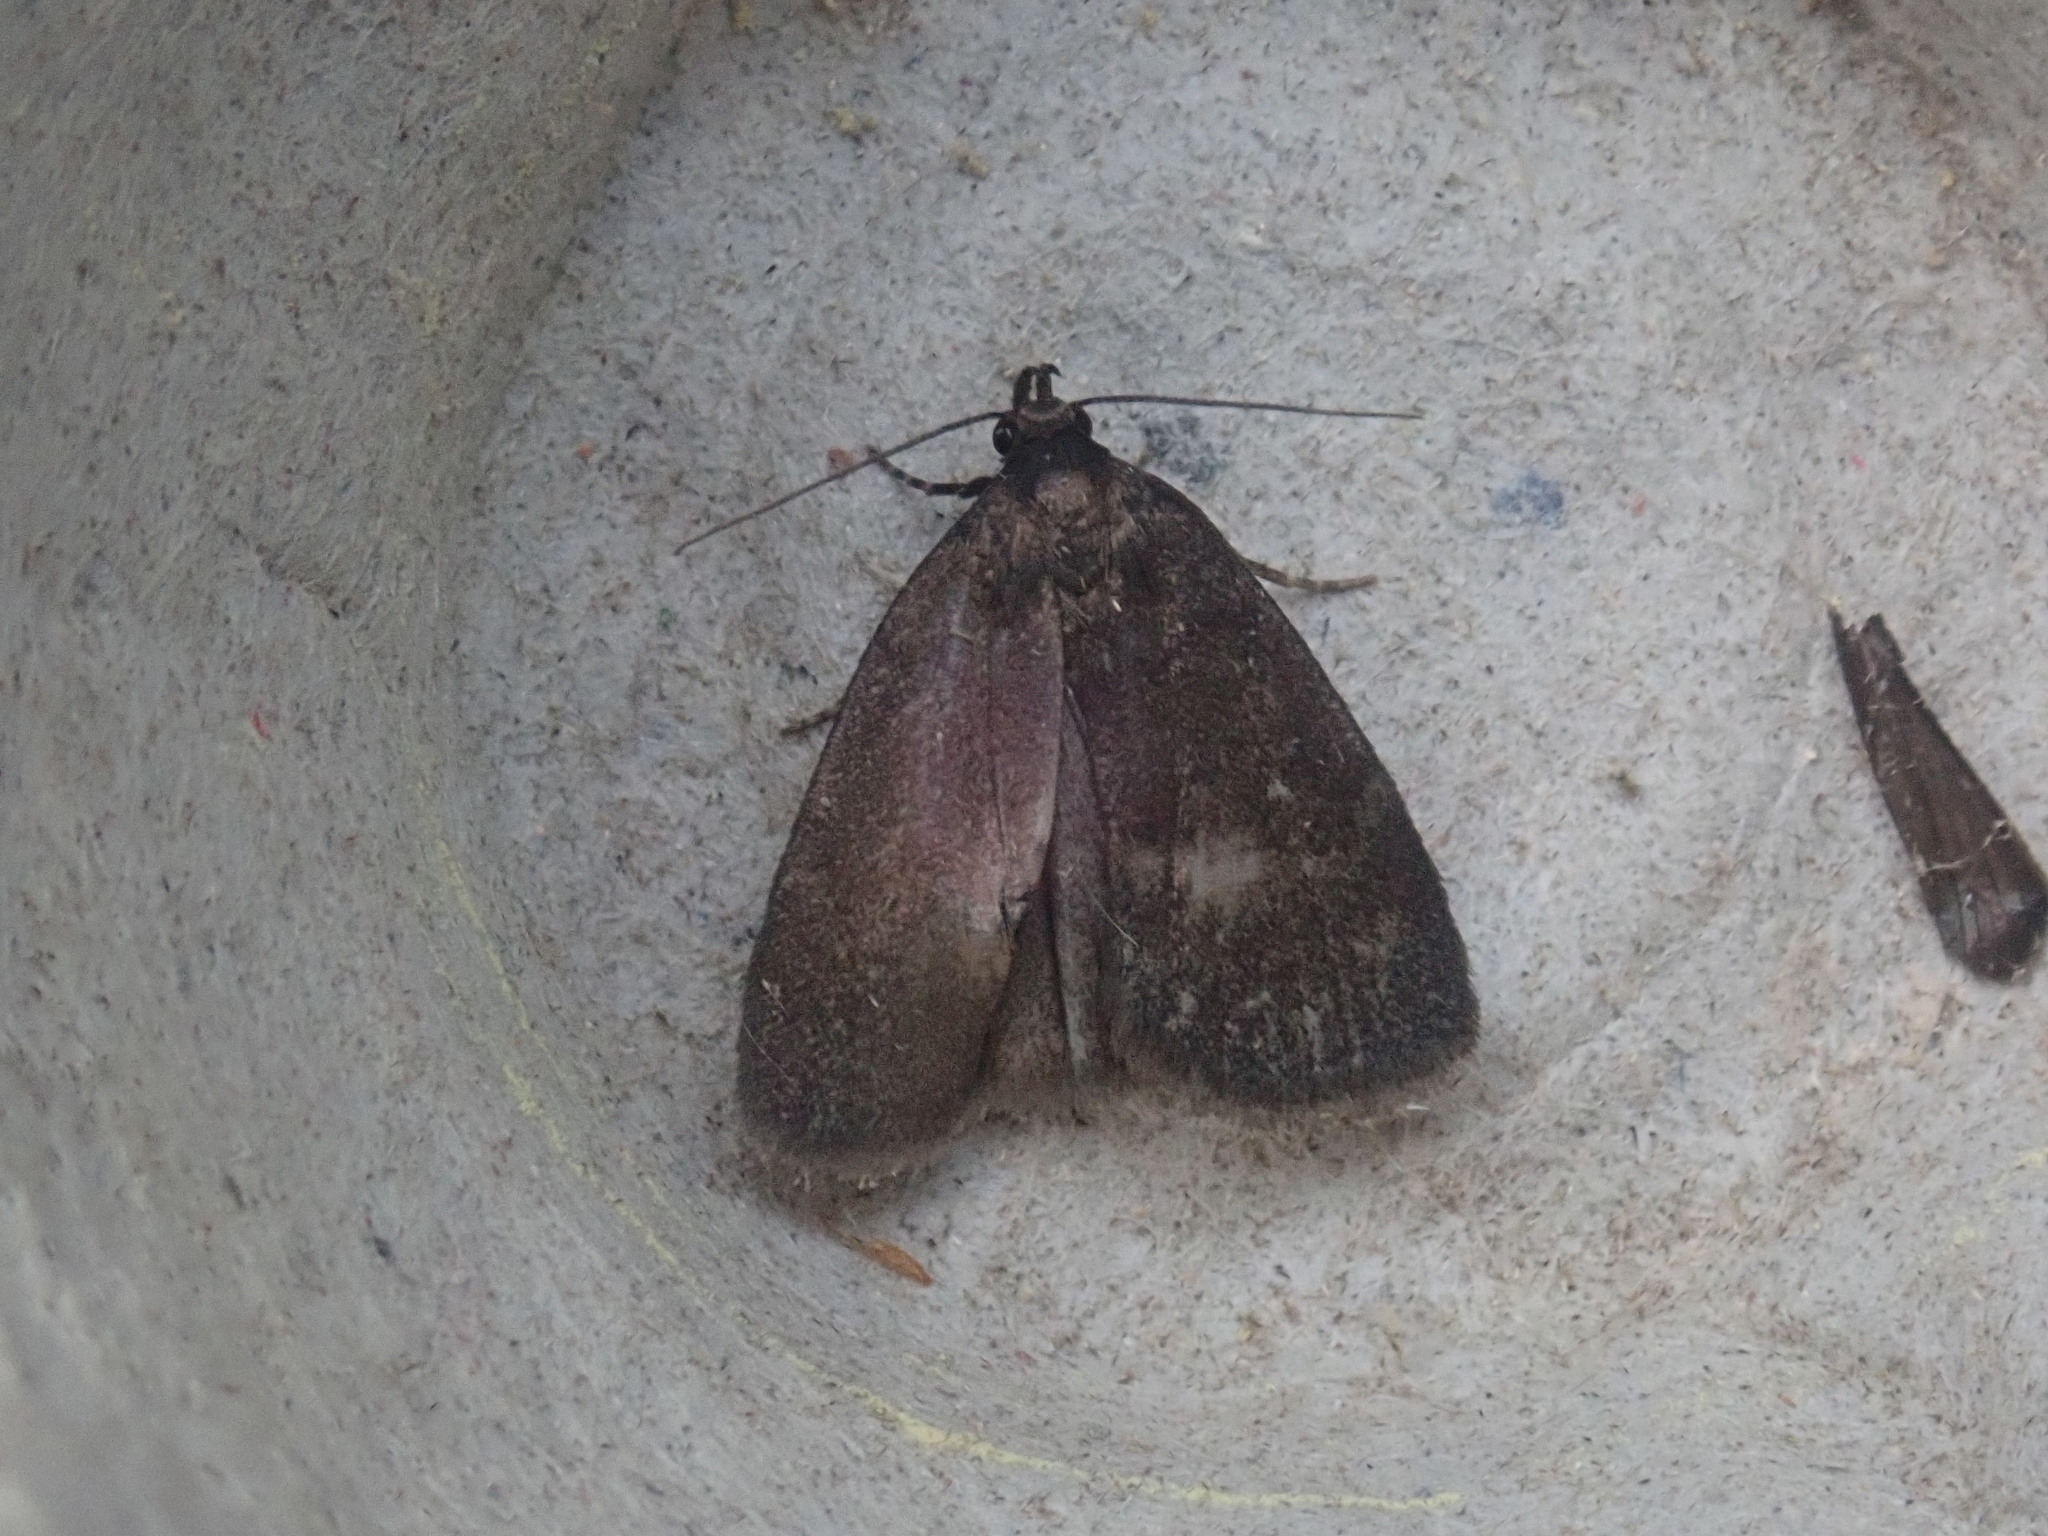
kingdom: Animalia
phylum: Arthropoda
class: Insecta
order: Lepidoptera
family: Erebidae
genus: Idia
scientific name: Idia rotundalis
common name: Rotund idia moth
